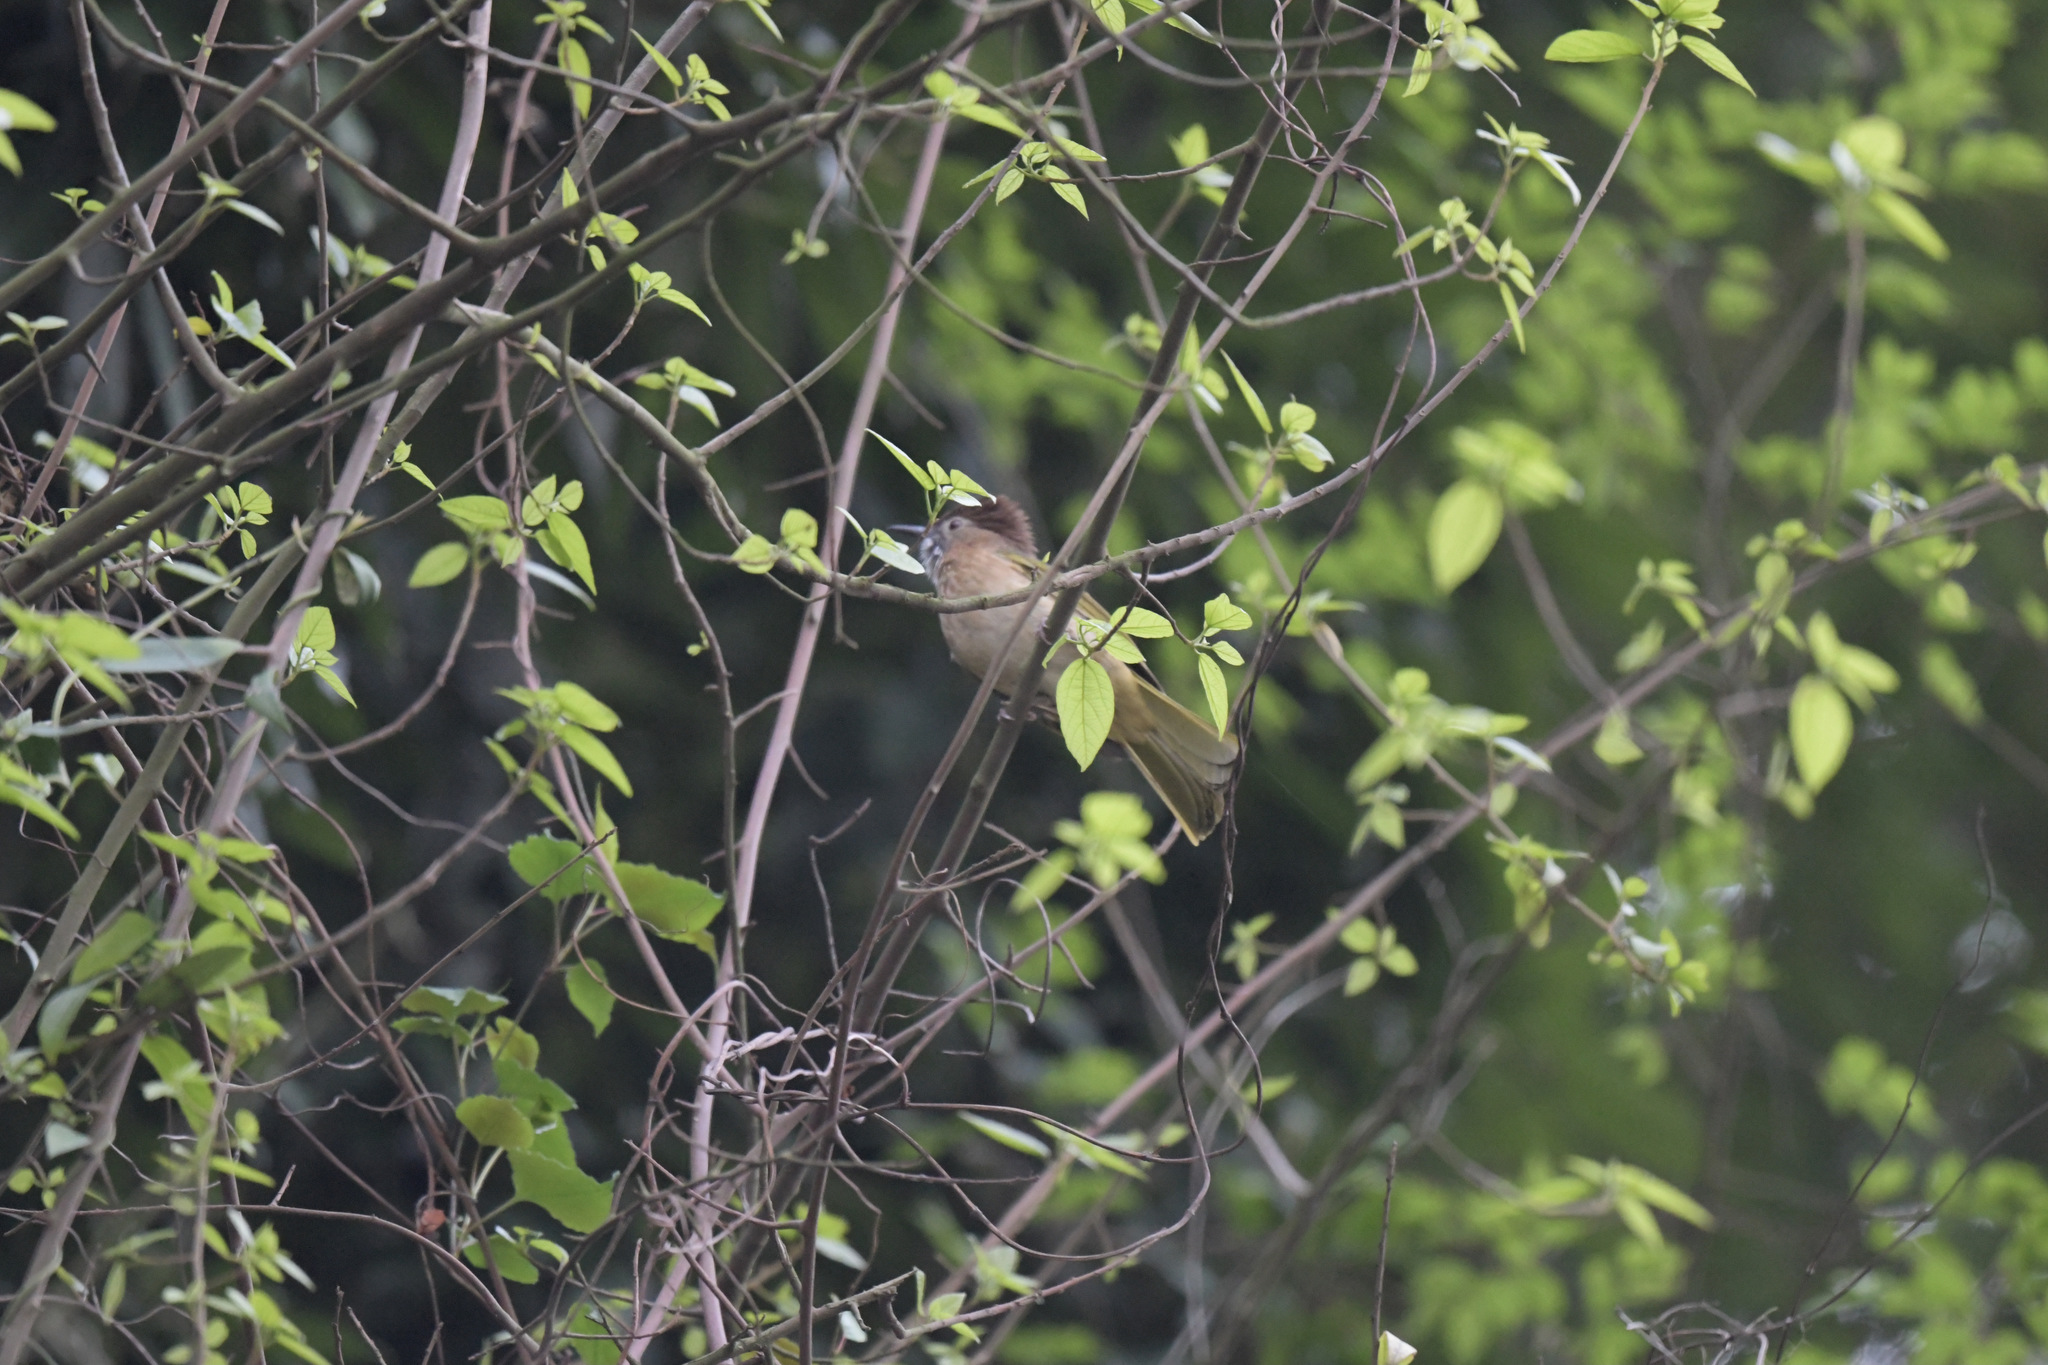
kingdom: Animalia
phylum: Chordata
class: Aves
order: Passeriformes
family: Pycnonotidae
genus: Ixos
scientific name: Ixos mcclellandii
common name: Mountain bulbul
